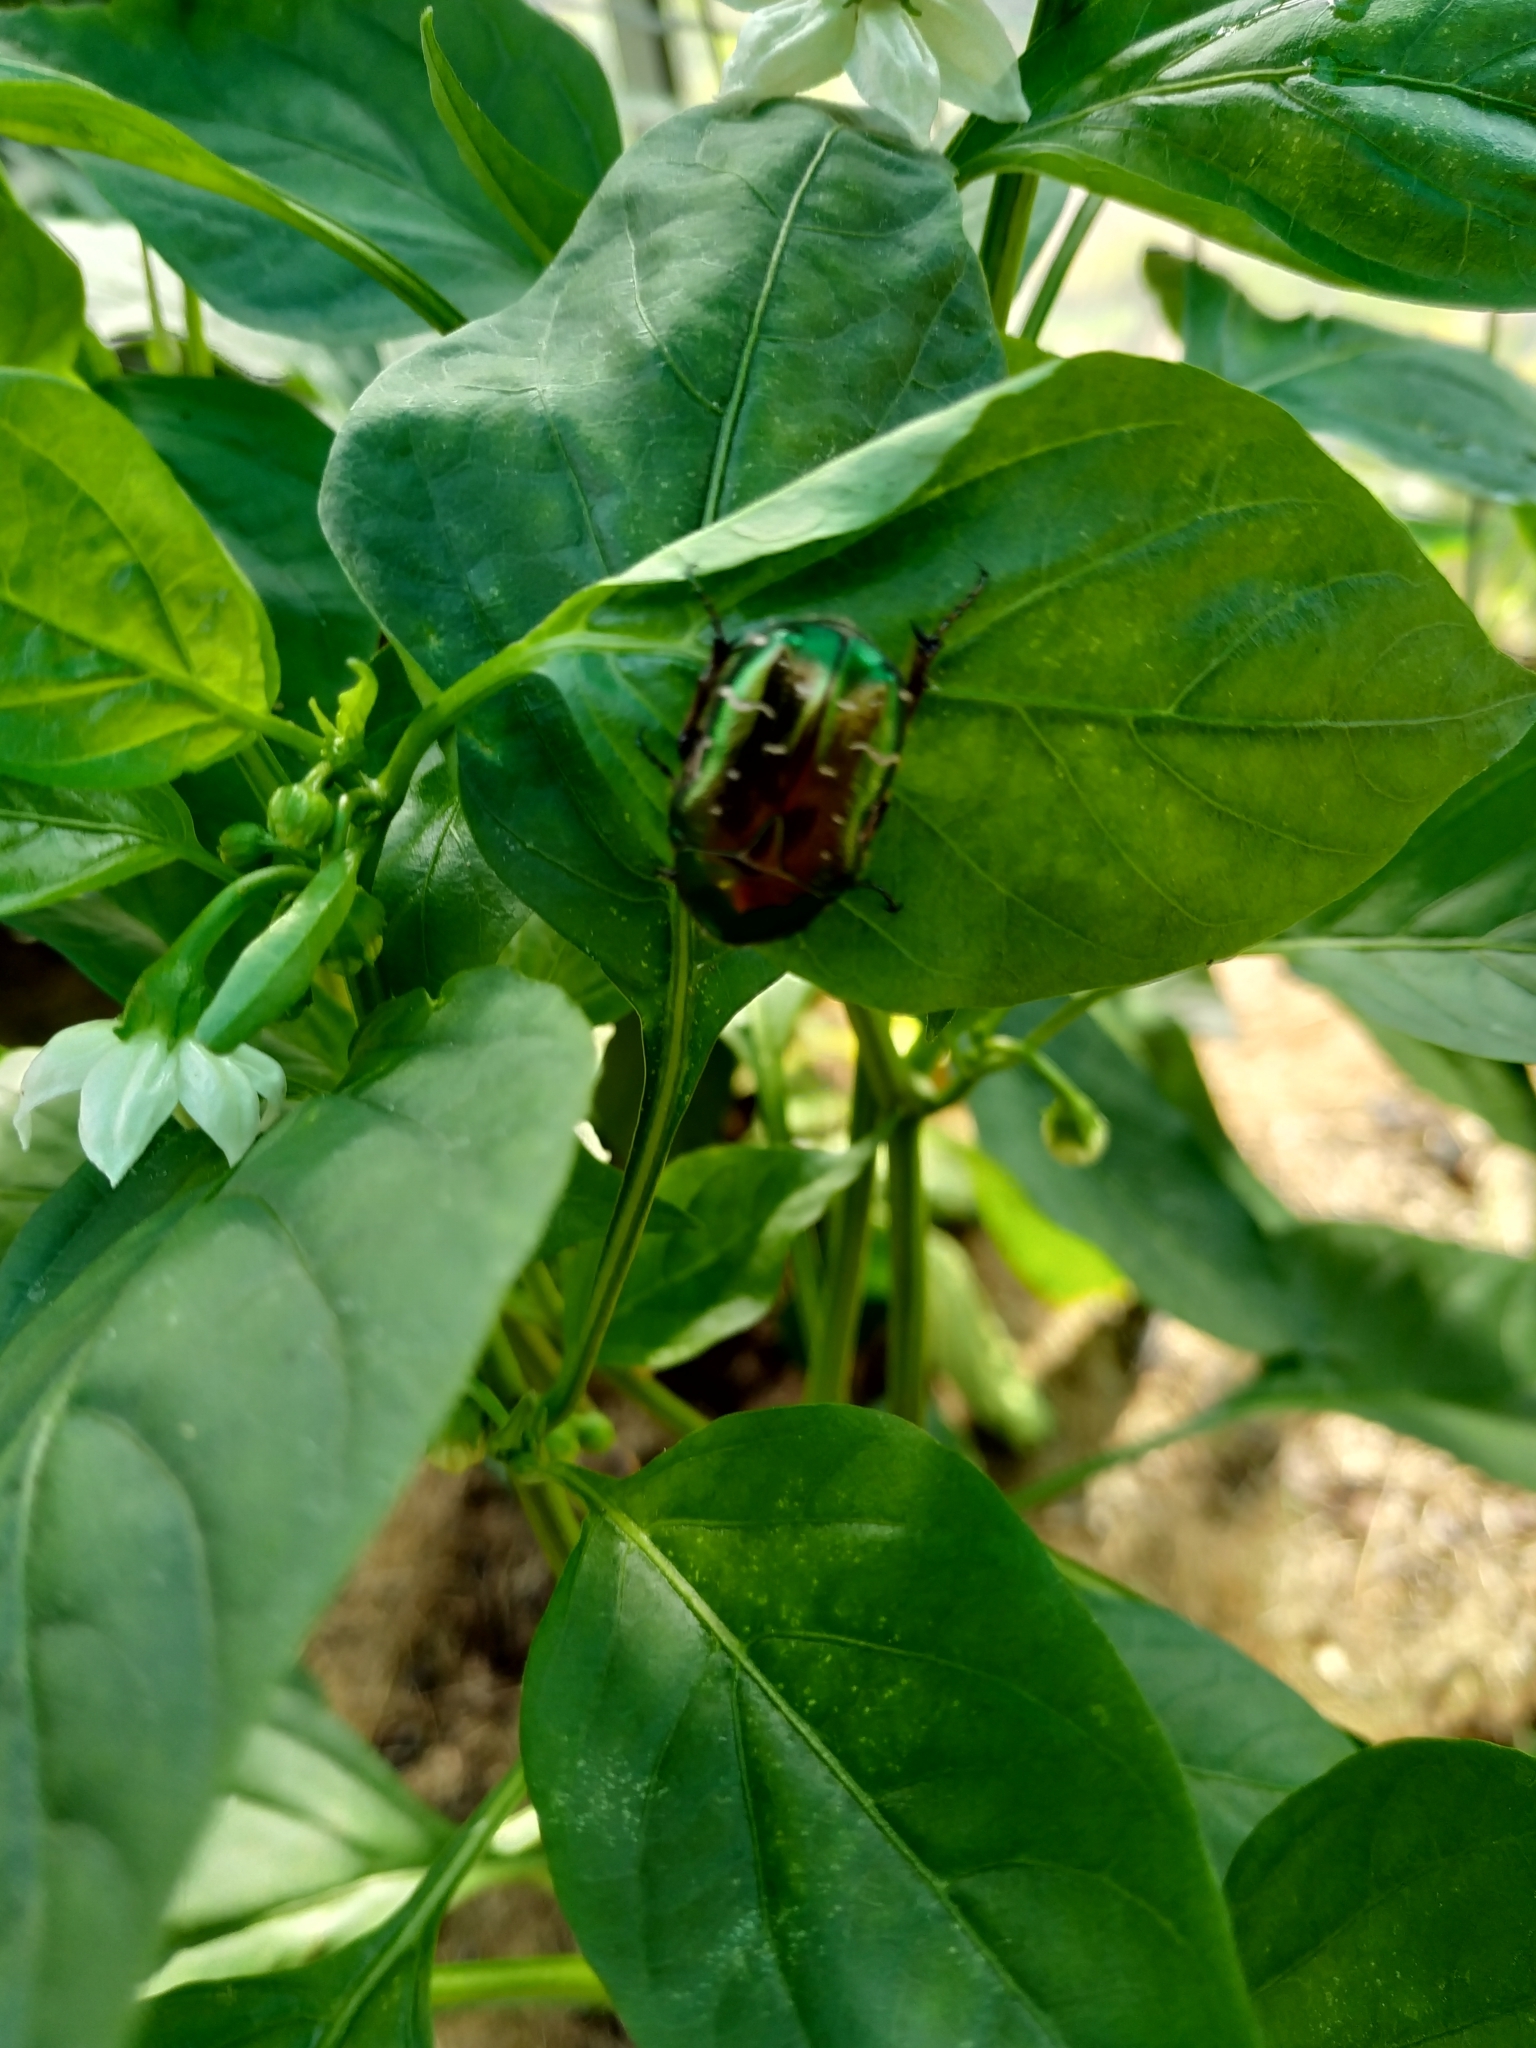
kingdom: Animalia
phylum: Arthropoda
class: Insecta
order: Coleoptera
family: Scarabaeidae
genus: Cetonia
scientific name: Cetonia aurata
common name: Rose chafer
